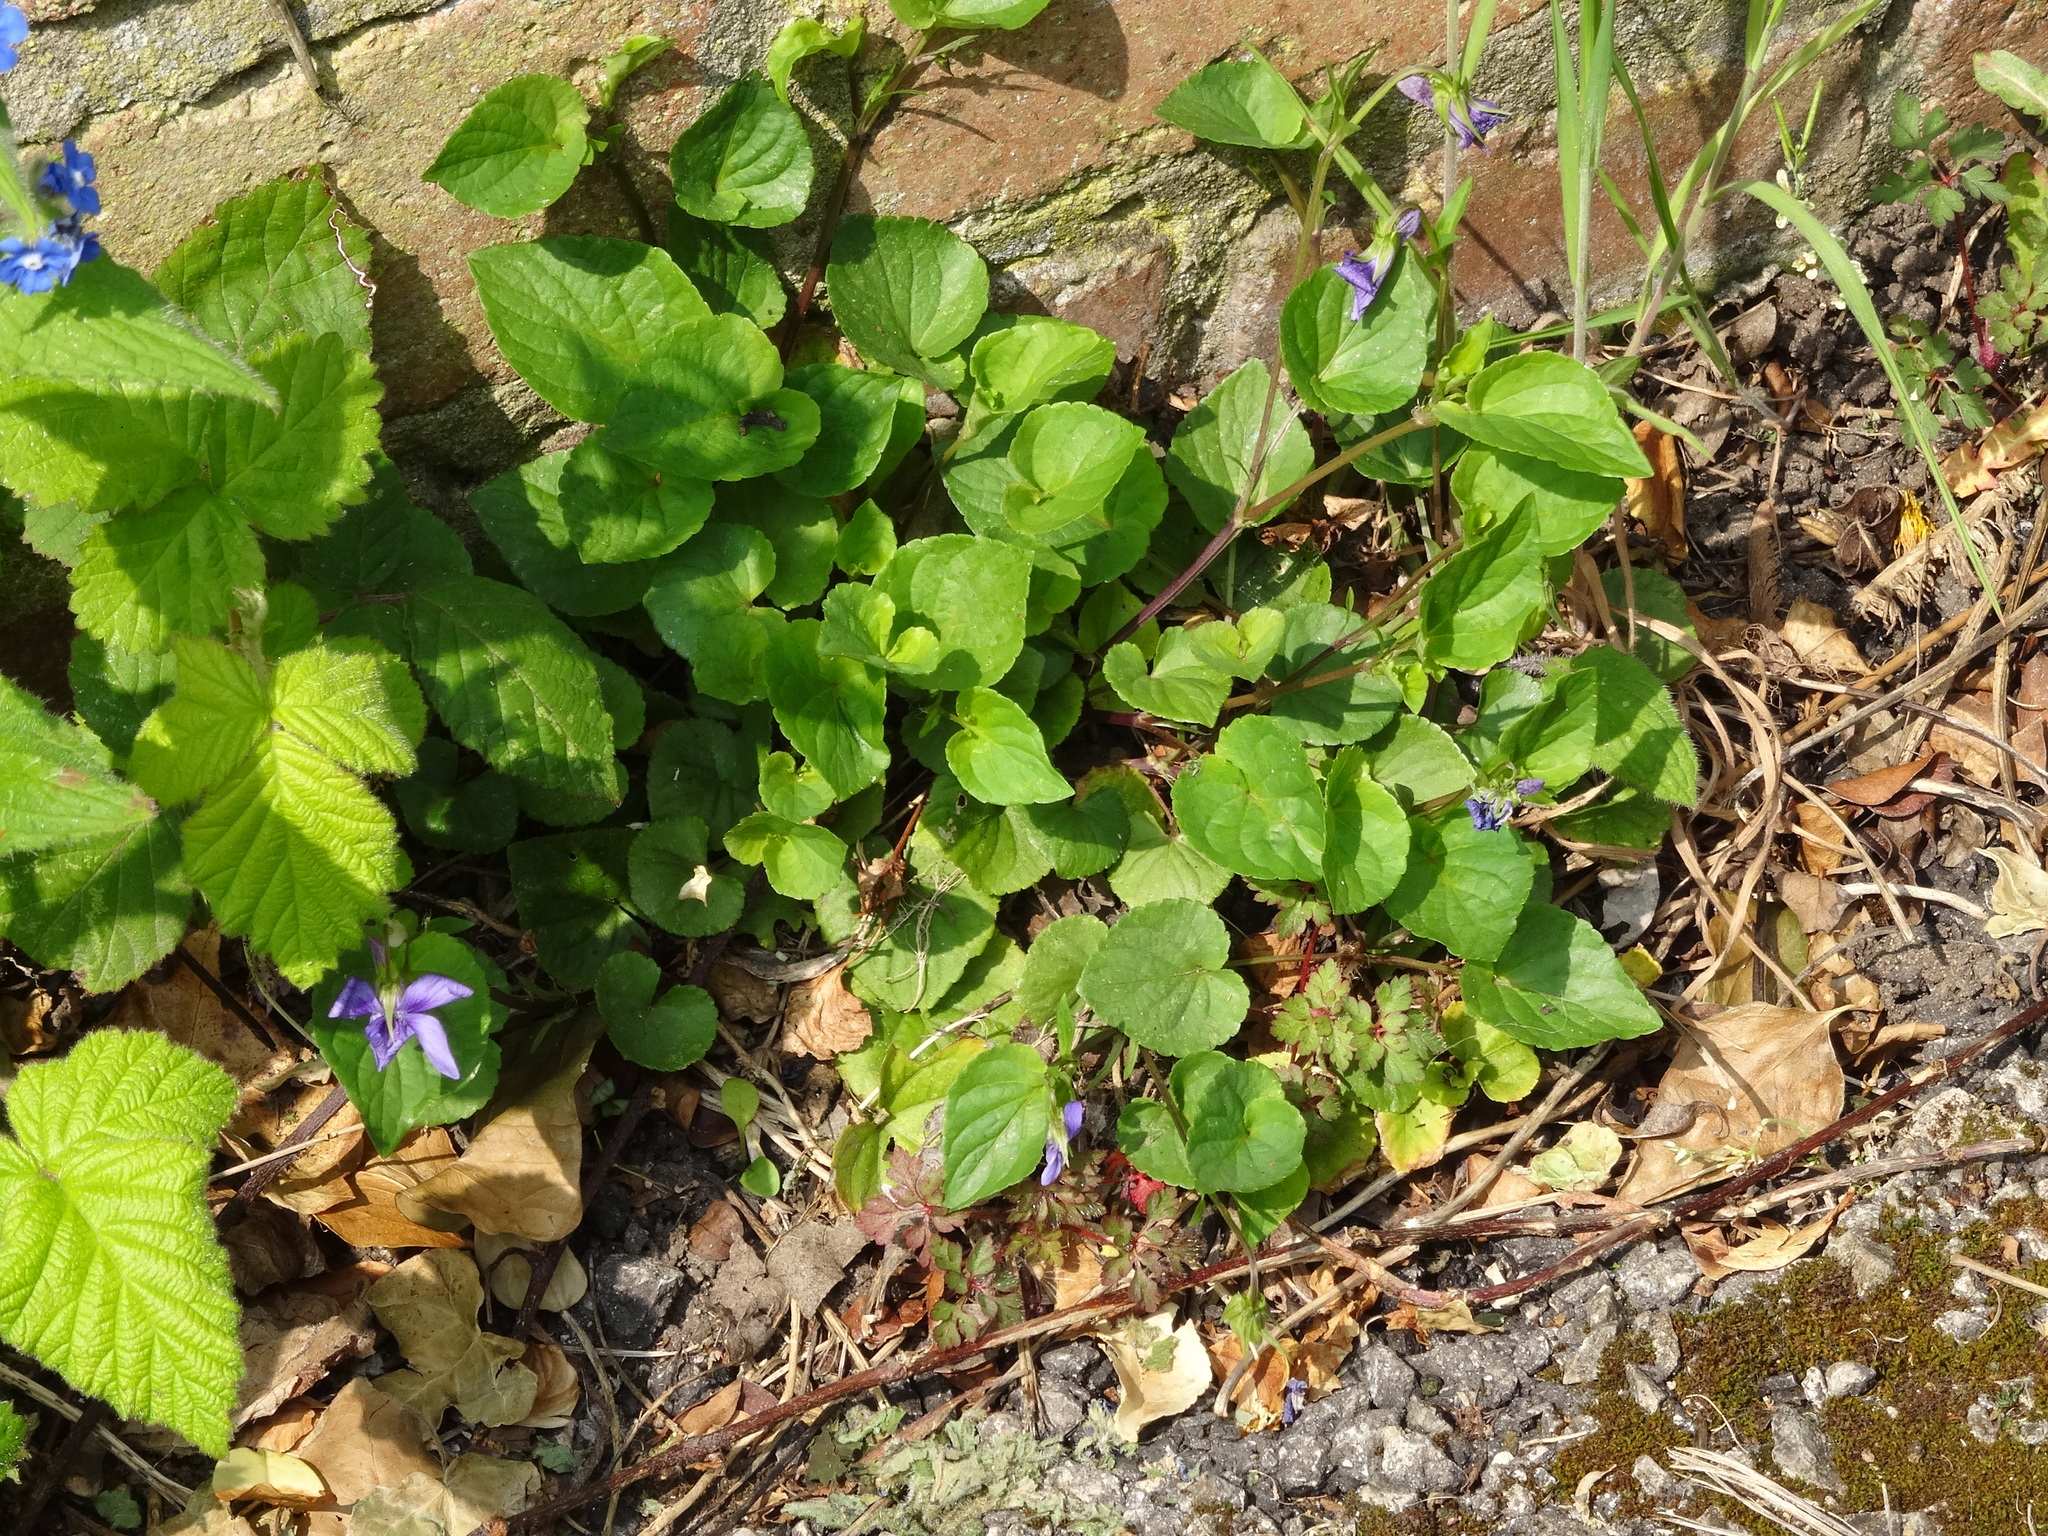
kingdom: Plantae
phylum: Tracheophyta
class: Magnoliopsida
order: Malpighiales
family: Violaceae
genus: Viola
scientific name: Viola riviniana
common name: Common dog-violet
